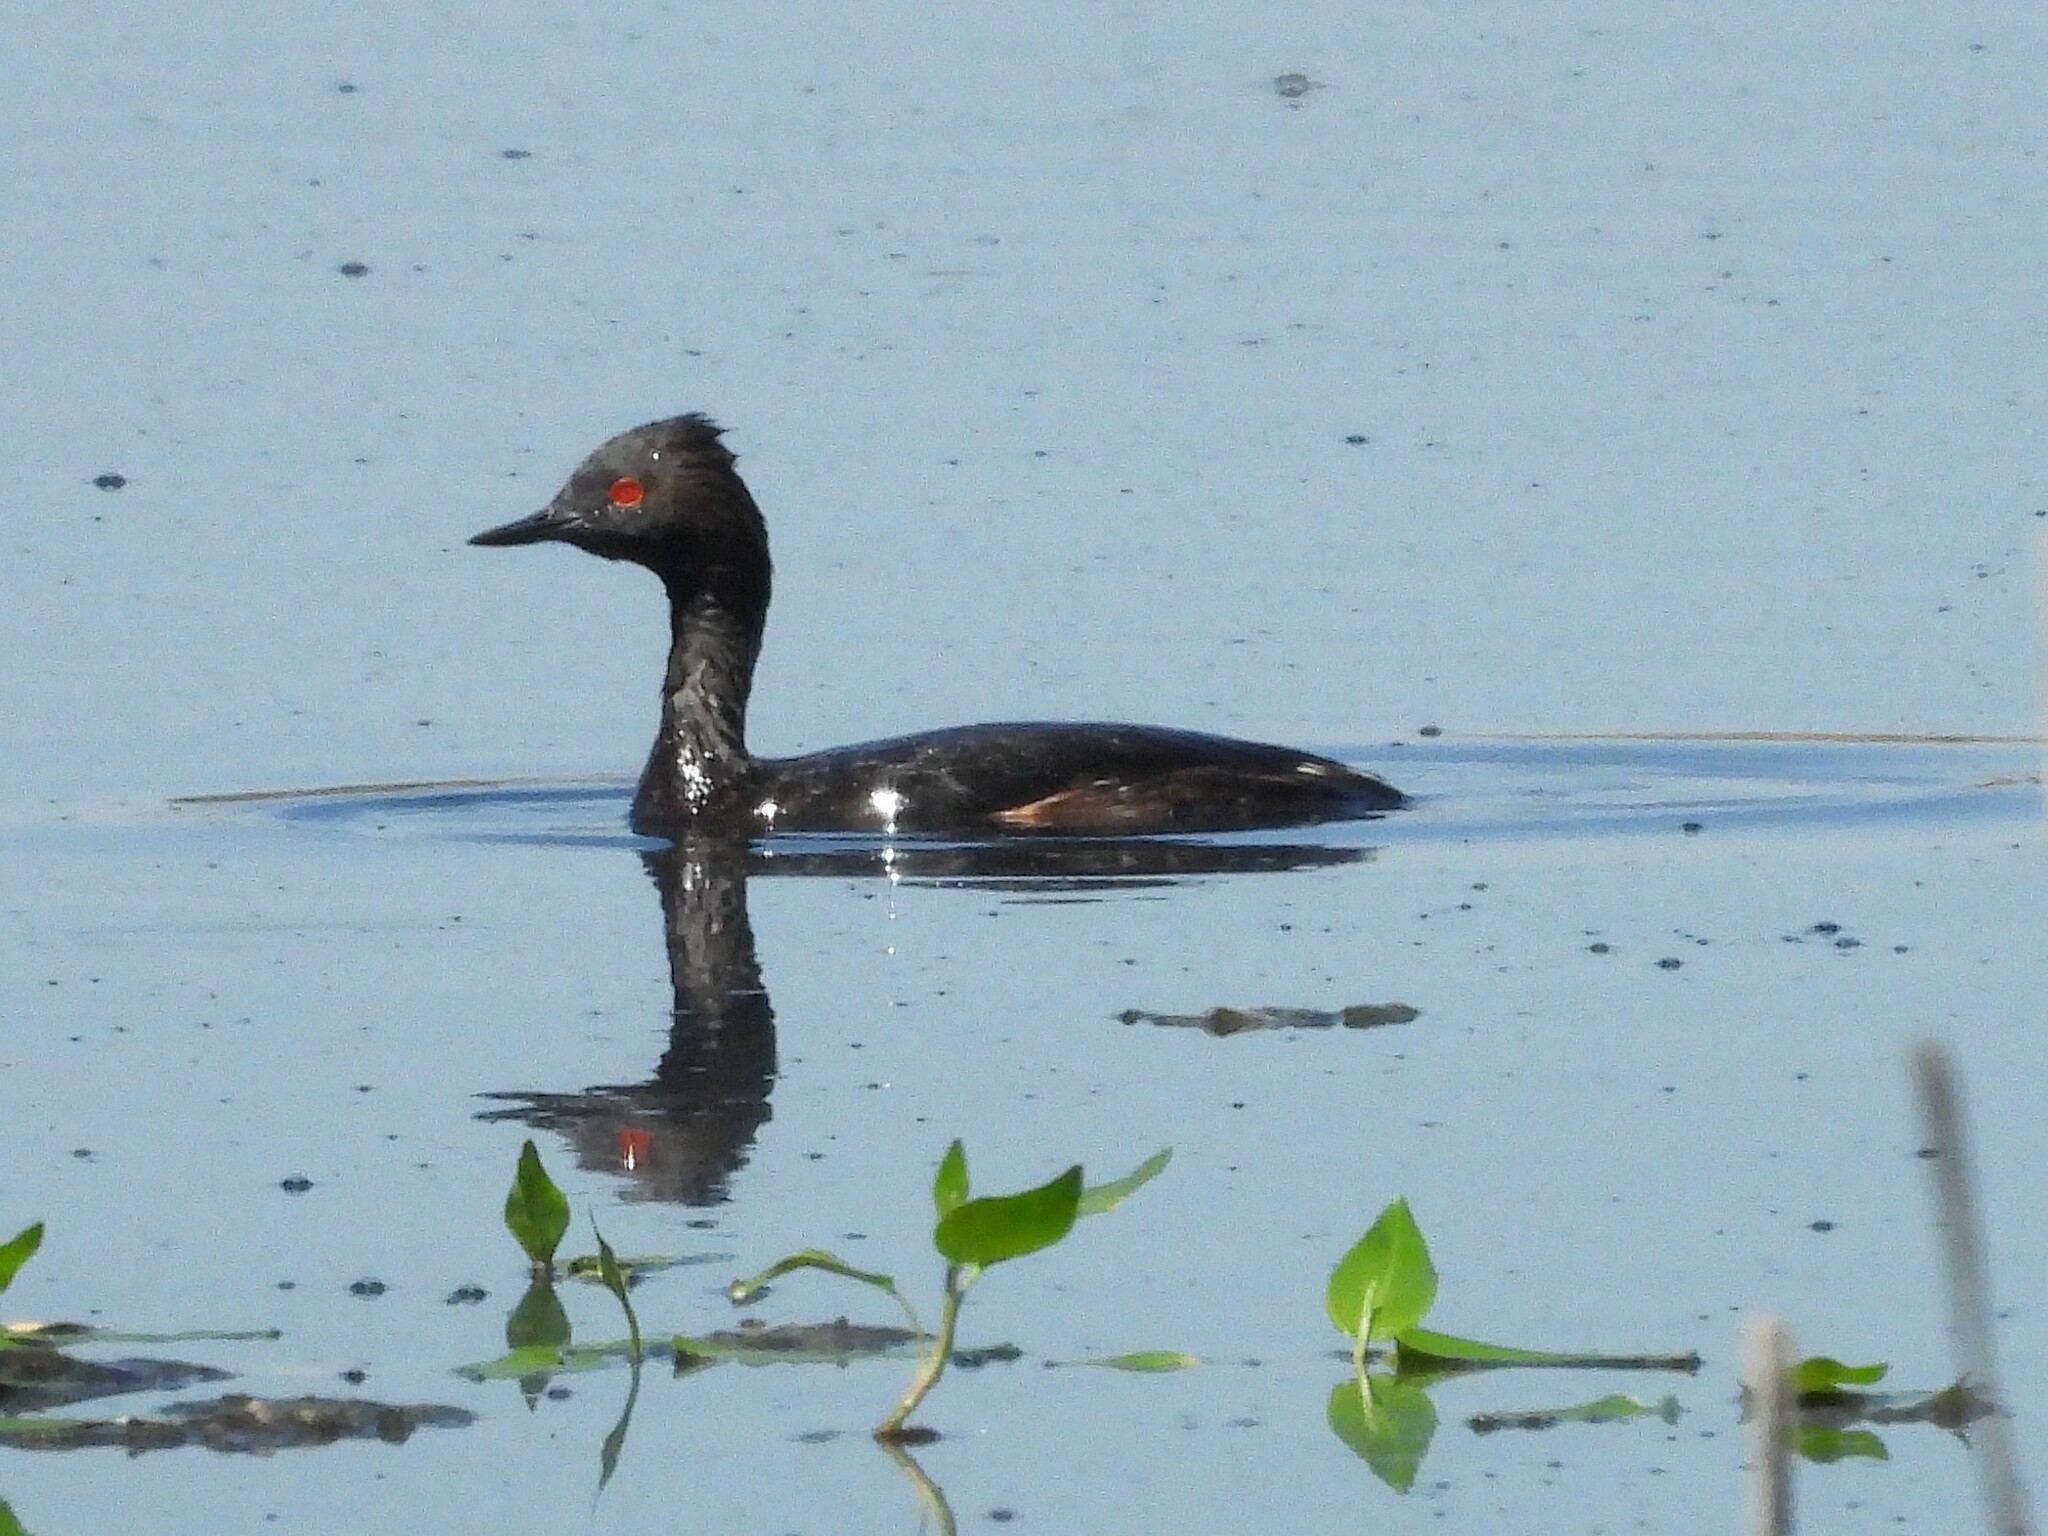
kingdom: Animalia
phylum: Chordata
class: Aves
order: Podicipediformes
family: Podicipedidae
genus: Podiceps
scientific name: Podiceps nigricollis
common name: Black-necked grebe
